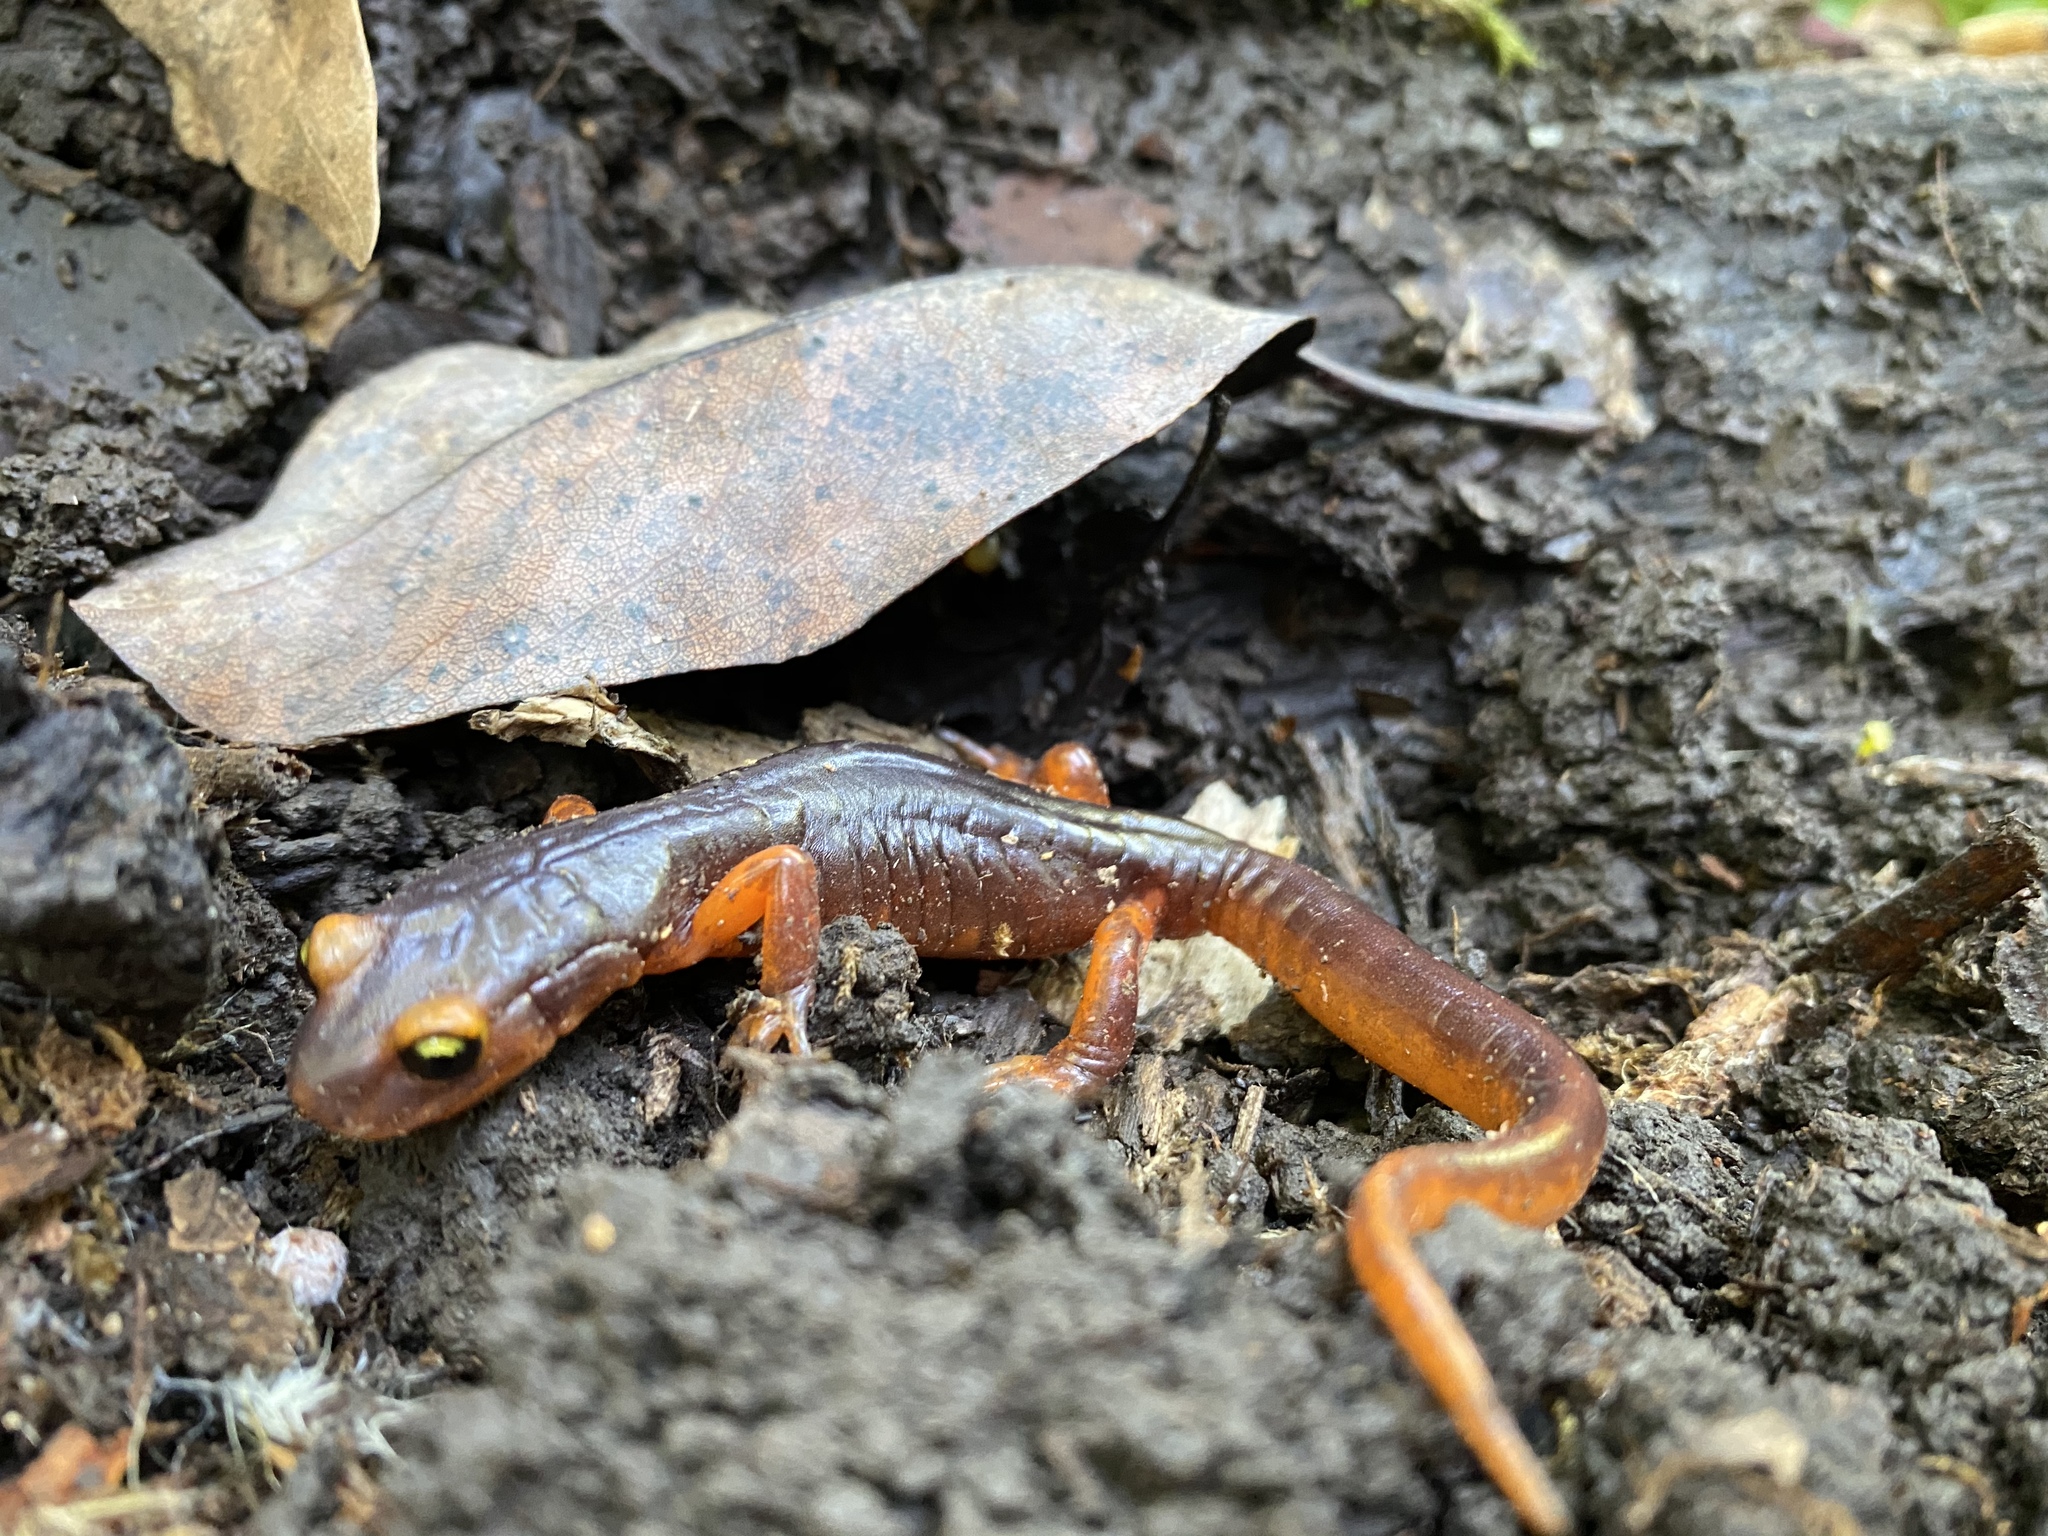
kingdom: Animalia
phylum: Chordata
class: Amphibia
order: Caudata
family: Plethodontidae
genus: Ensatina
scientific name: Ensatina eschscholtzii
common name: Ensatina
